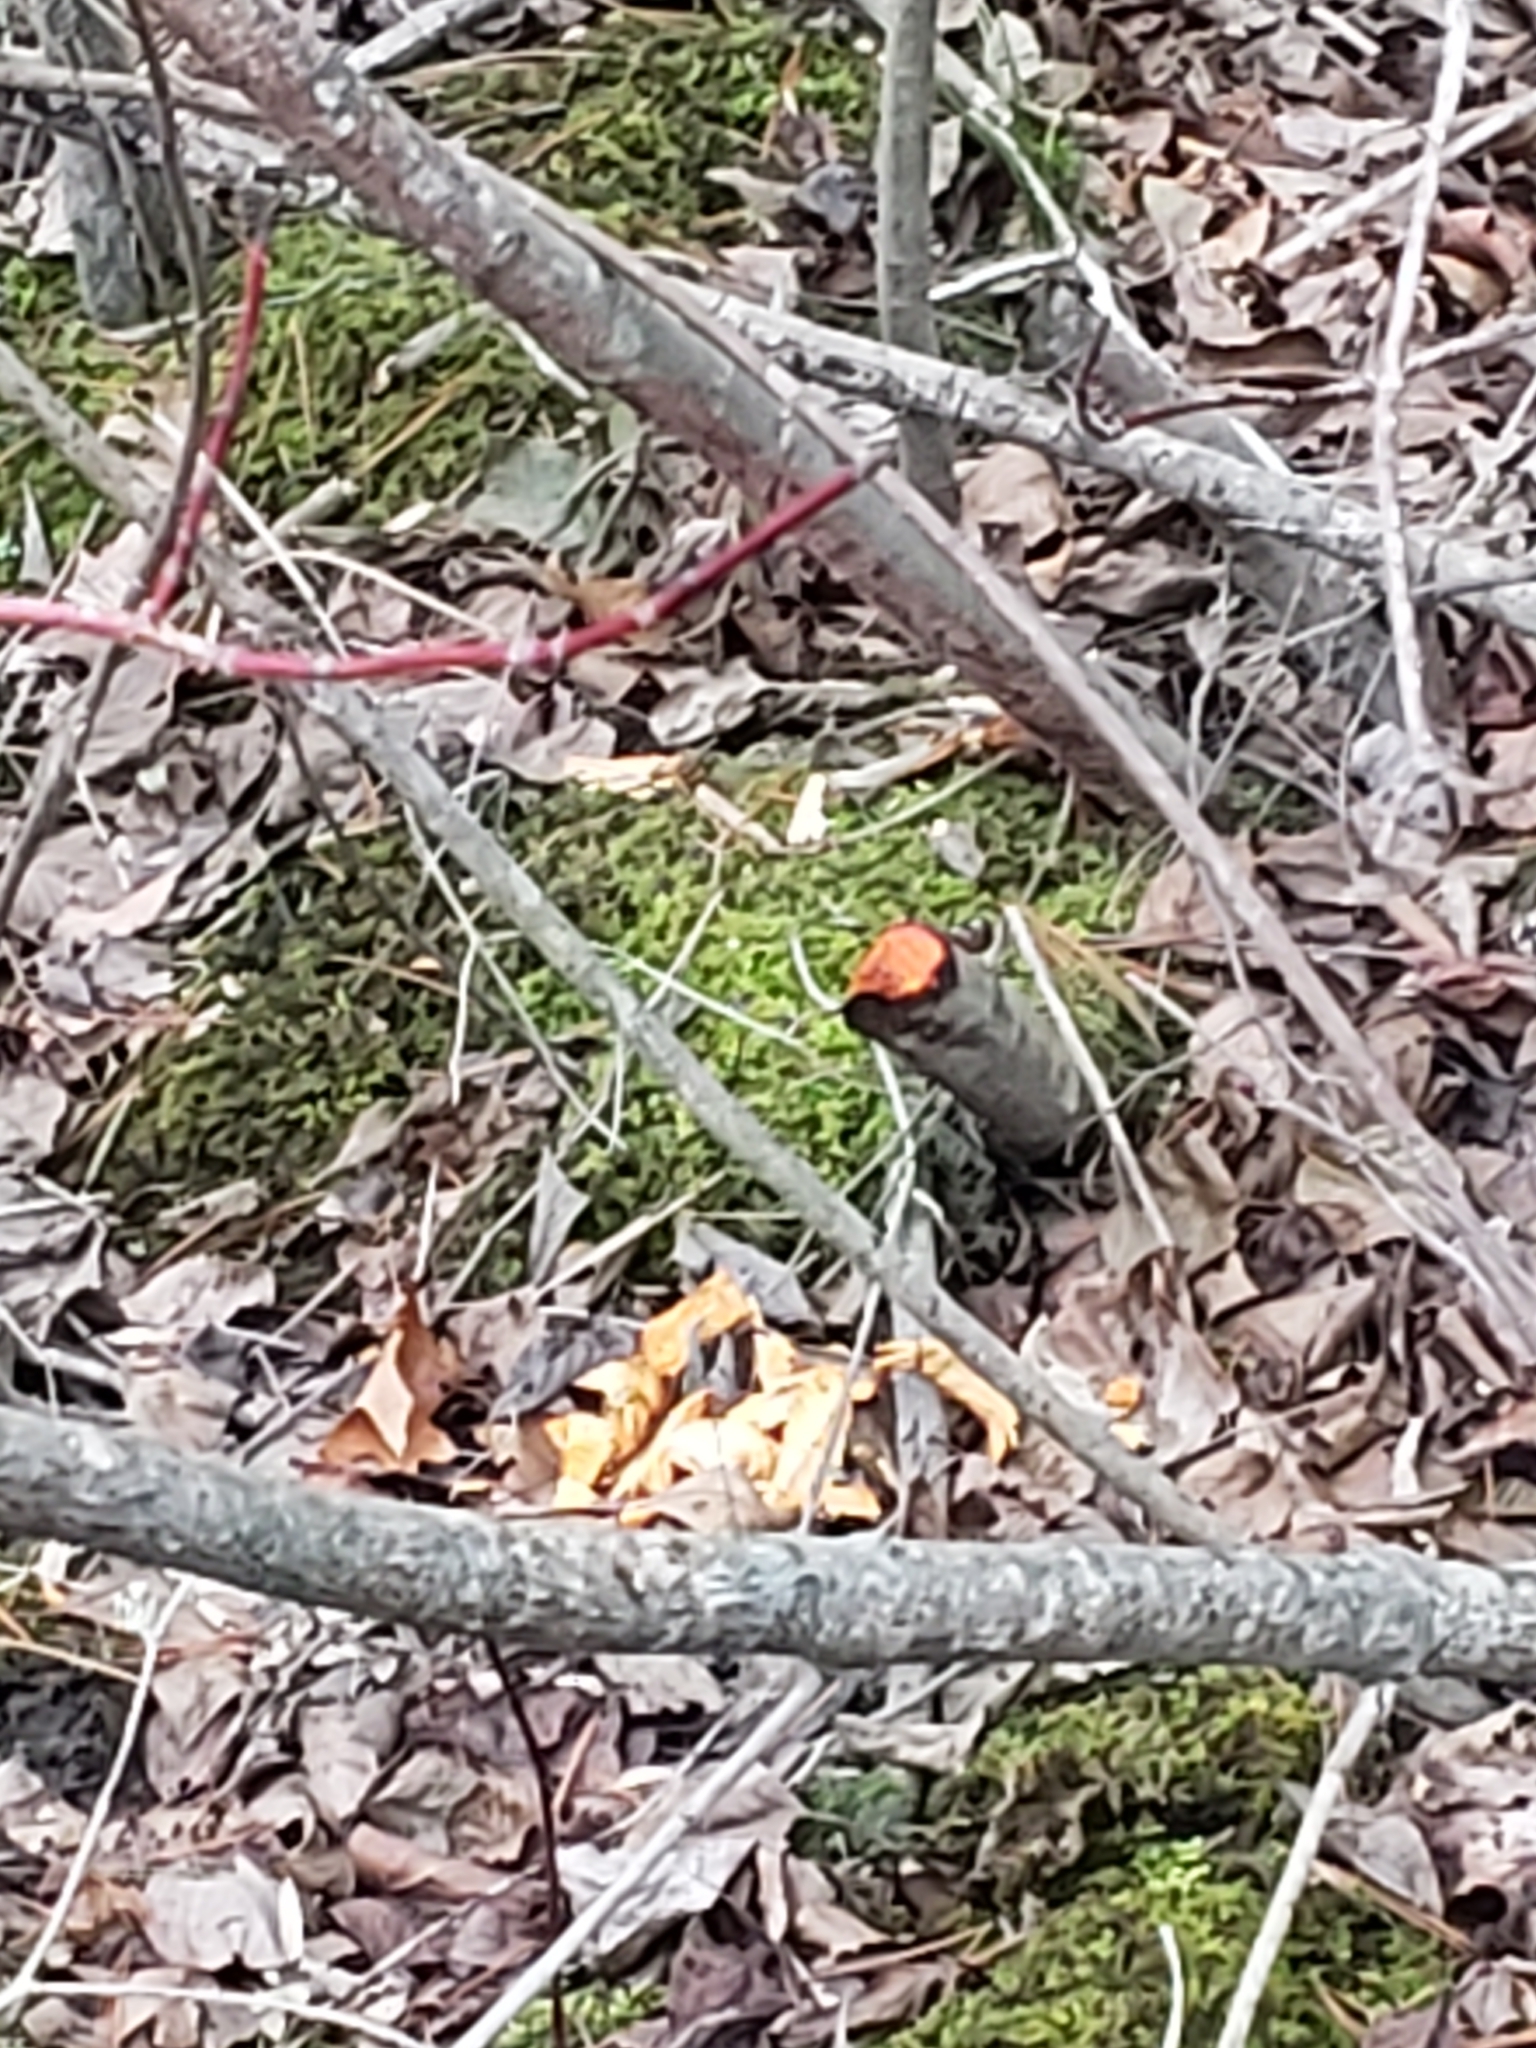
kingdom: Animalia
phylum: Chordata
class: Mammalia
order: Rodentia
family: Castoridae
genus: Castor
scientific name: Castor canadensis
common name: American beaver
